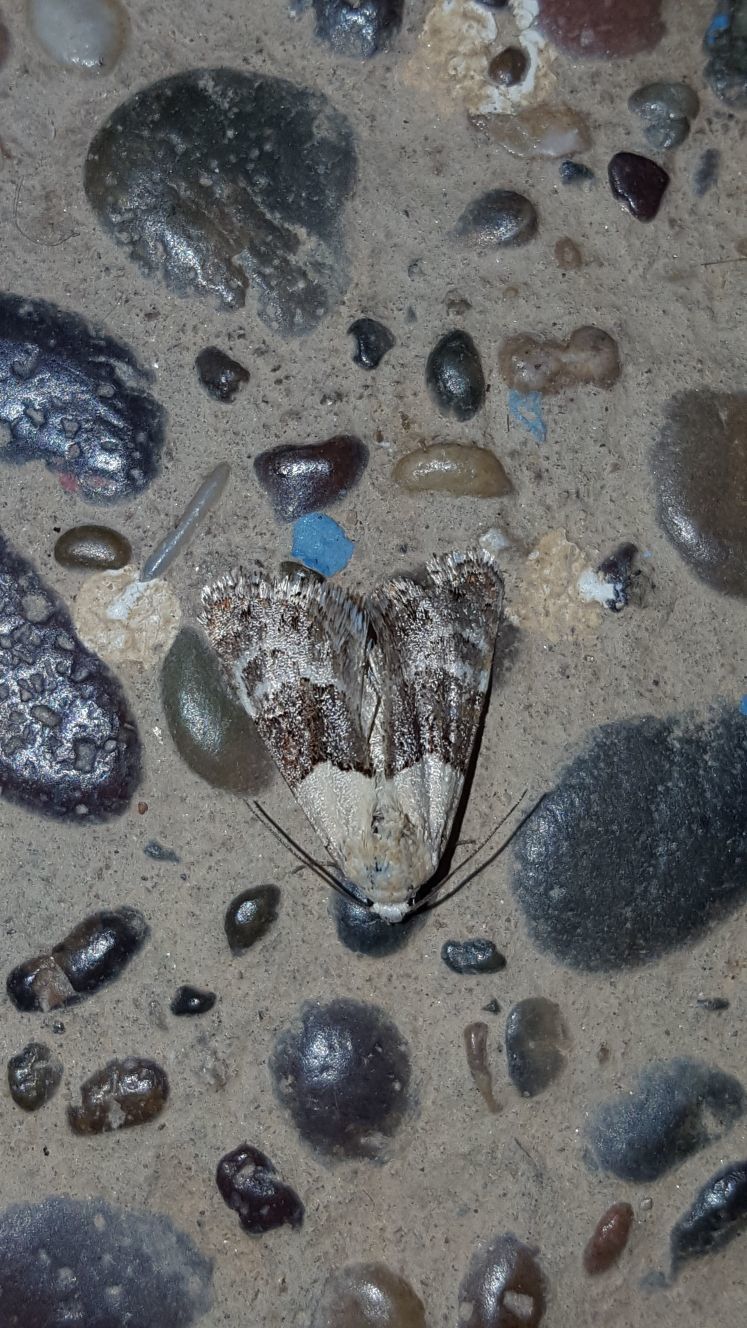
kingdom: Animalia
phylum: Arthropoda
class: Insecta
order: Lepidoptera
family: Erebidae
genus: Metoponrhis
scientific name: Metoponrhis rungsi
